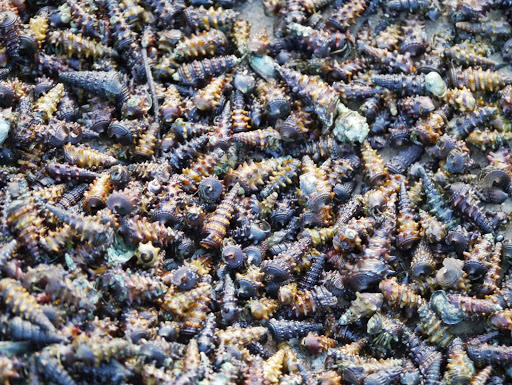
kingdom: Animalia
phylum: Mollusca
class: Gastropoda
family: Potamididae
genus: Tympanotonos
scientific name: Tympanotonos fuscatus
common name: Mud-flat periwinkle
